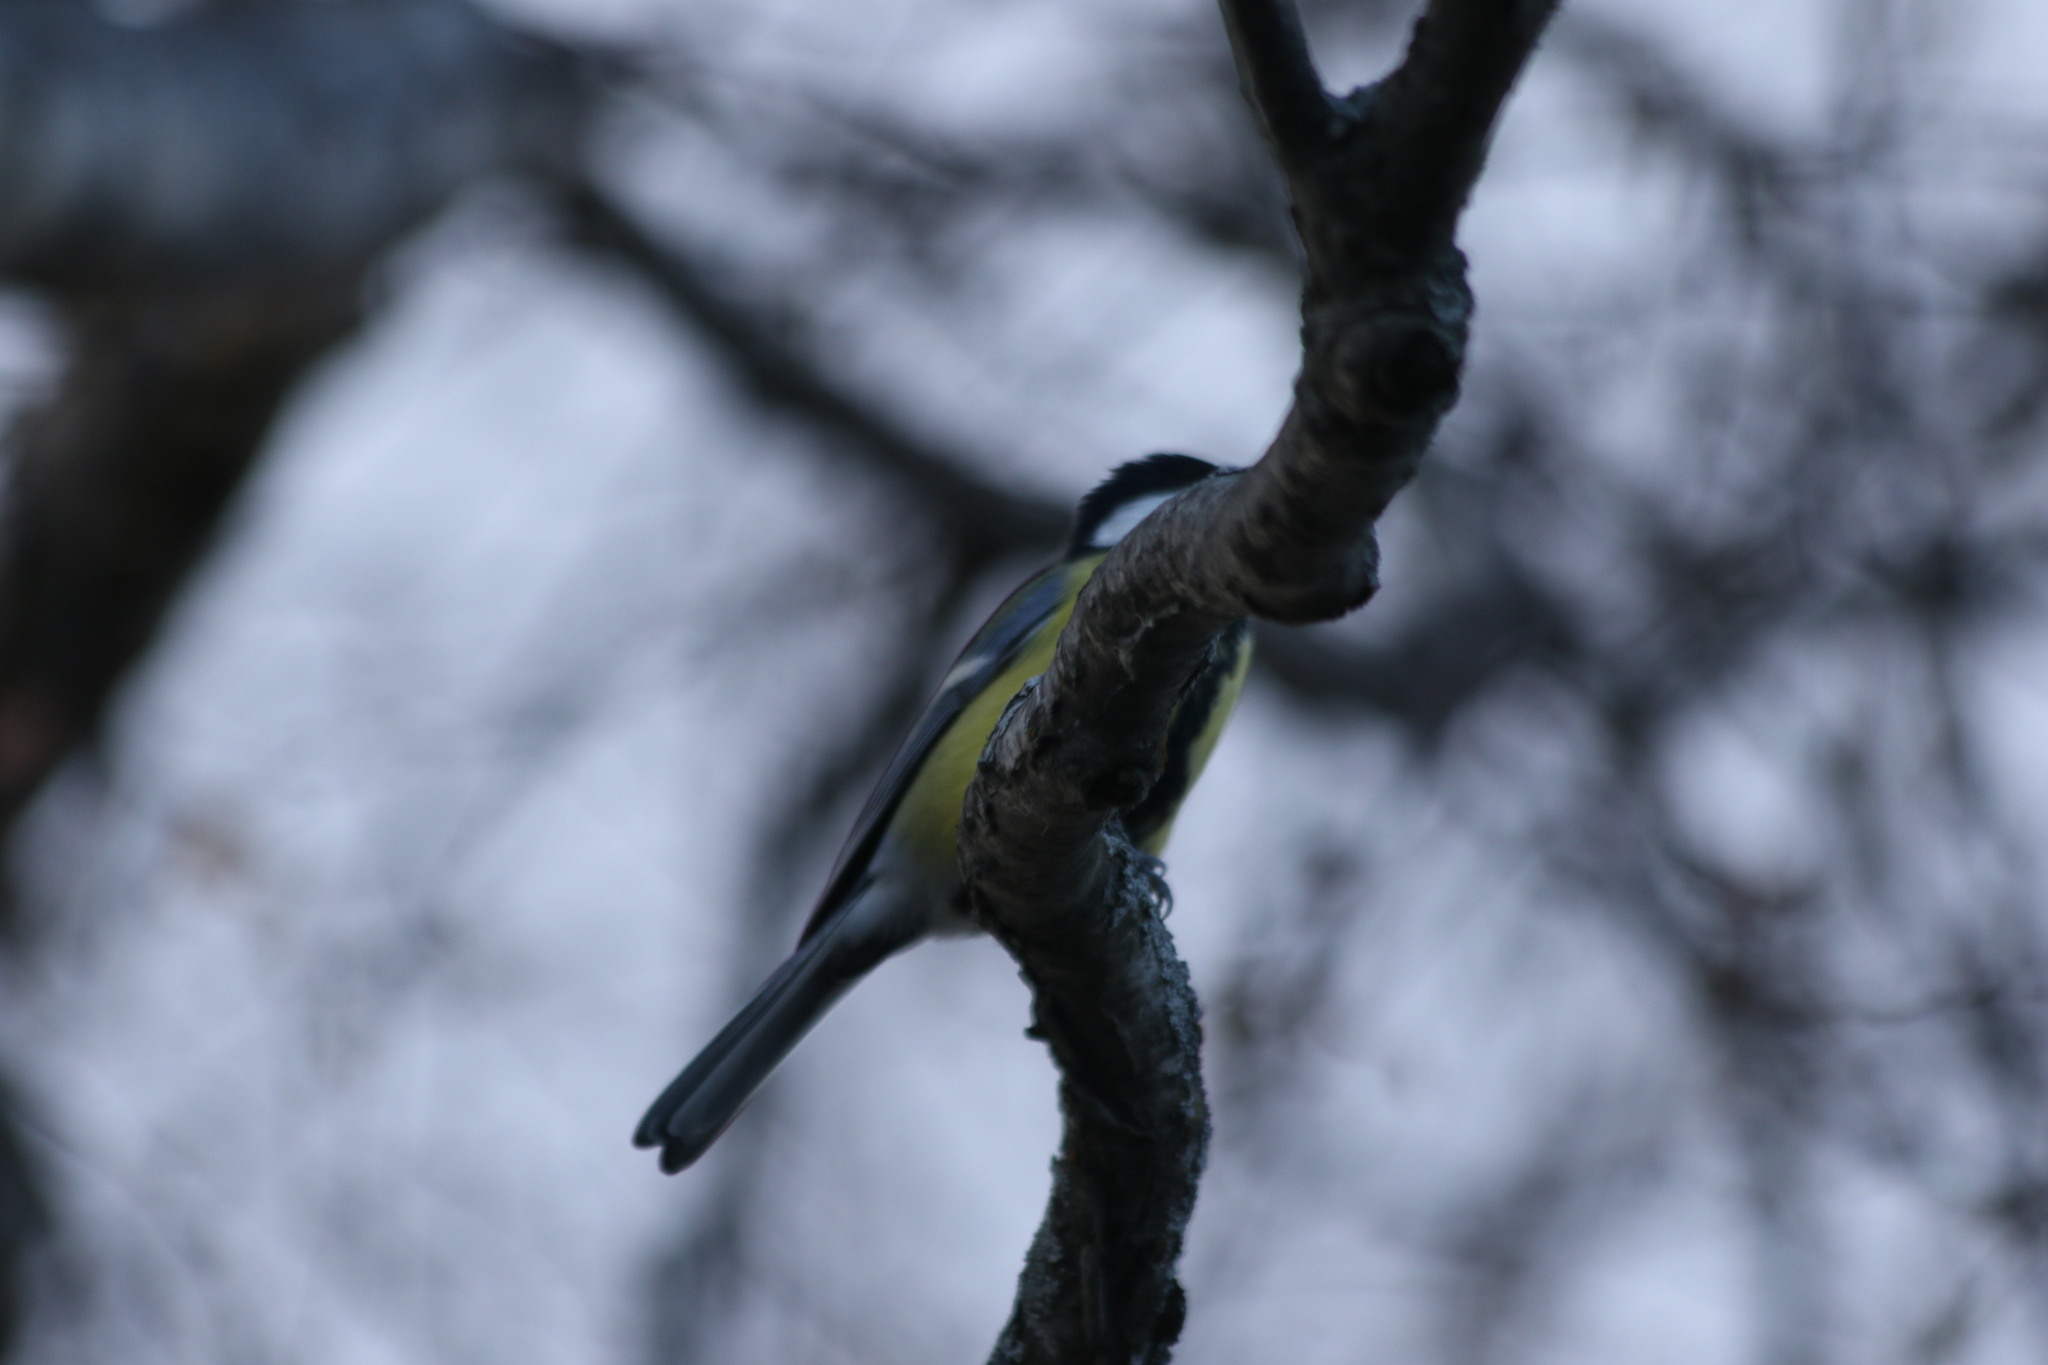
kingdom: Animalia
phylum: Chordata
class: Aves
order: Passeriformes
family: Paridae
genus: Parus
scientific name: Parus major
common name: Great tit
